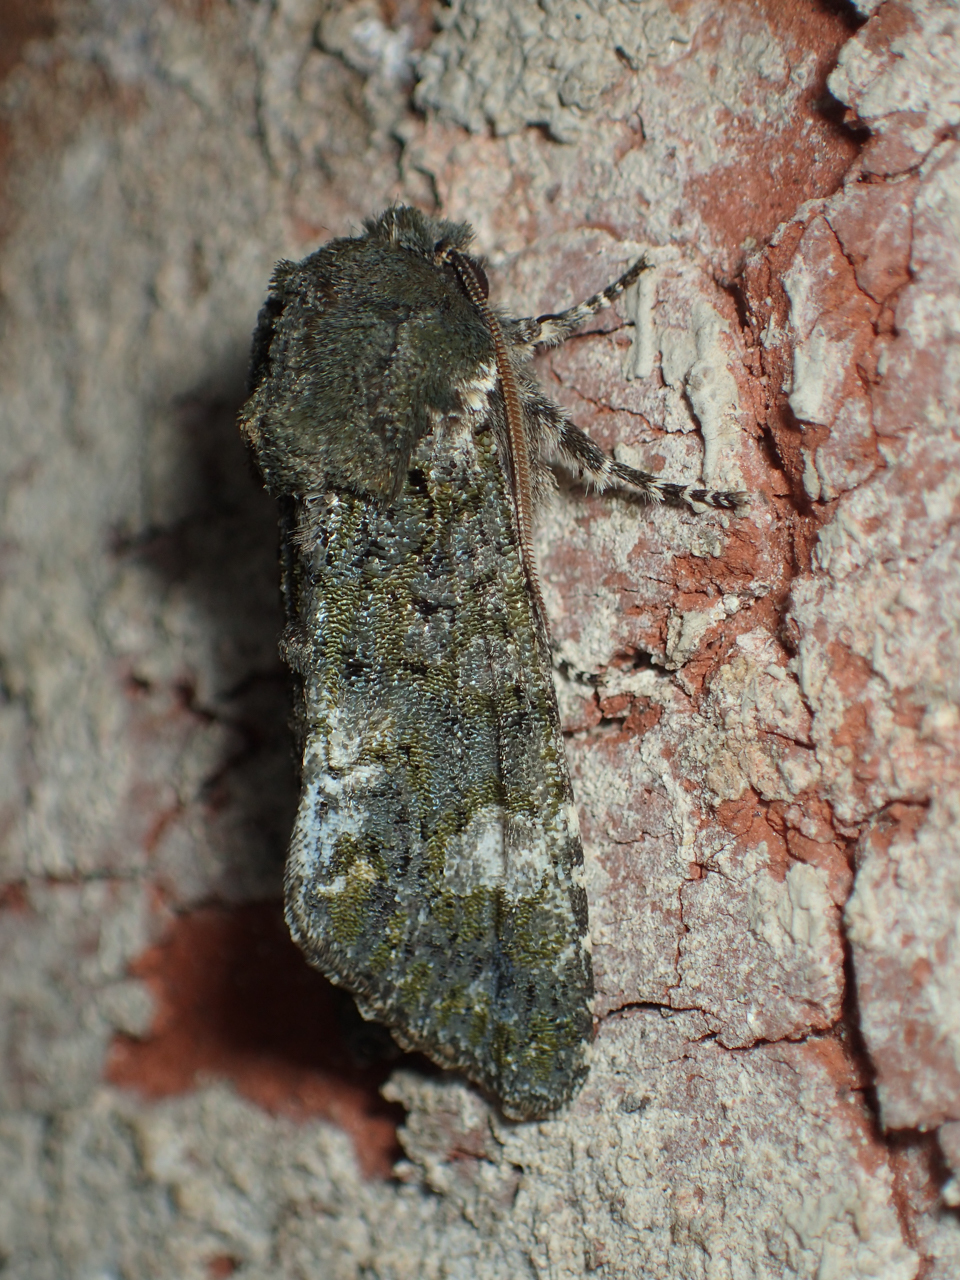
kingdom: Animalia
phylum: Arthropoda
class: Insecta
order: Lepidoptera
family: Noctuidae
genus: Psaphida
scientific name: Psaphida grotei
